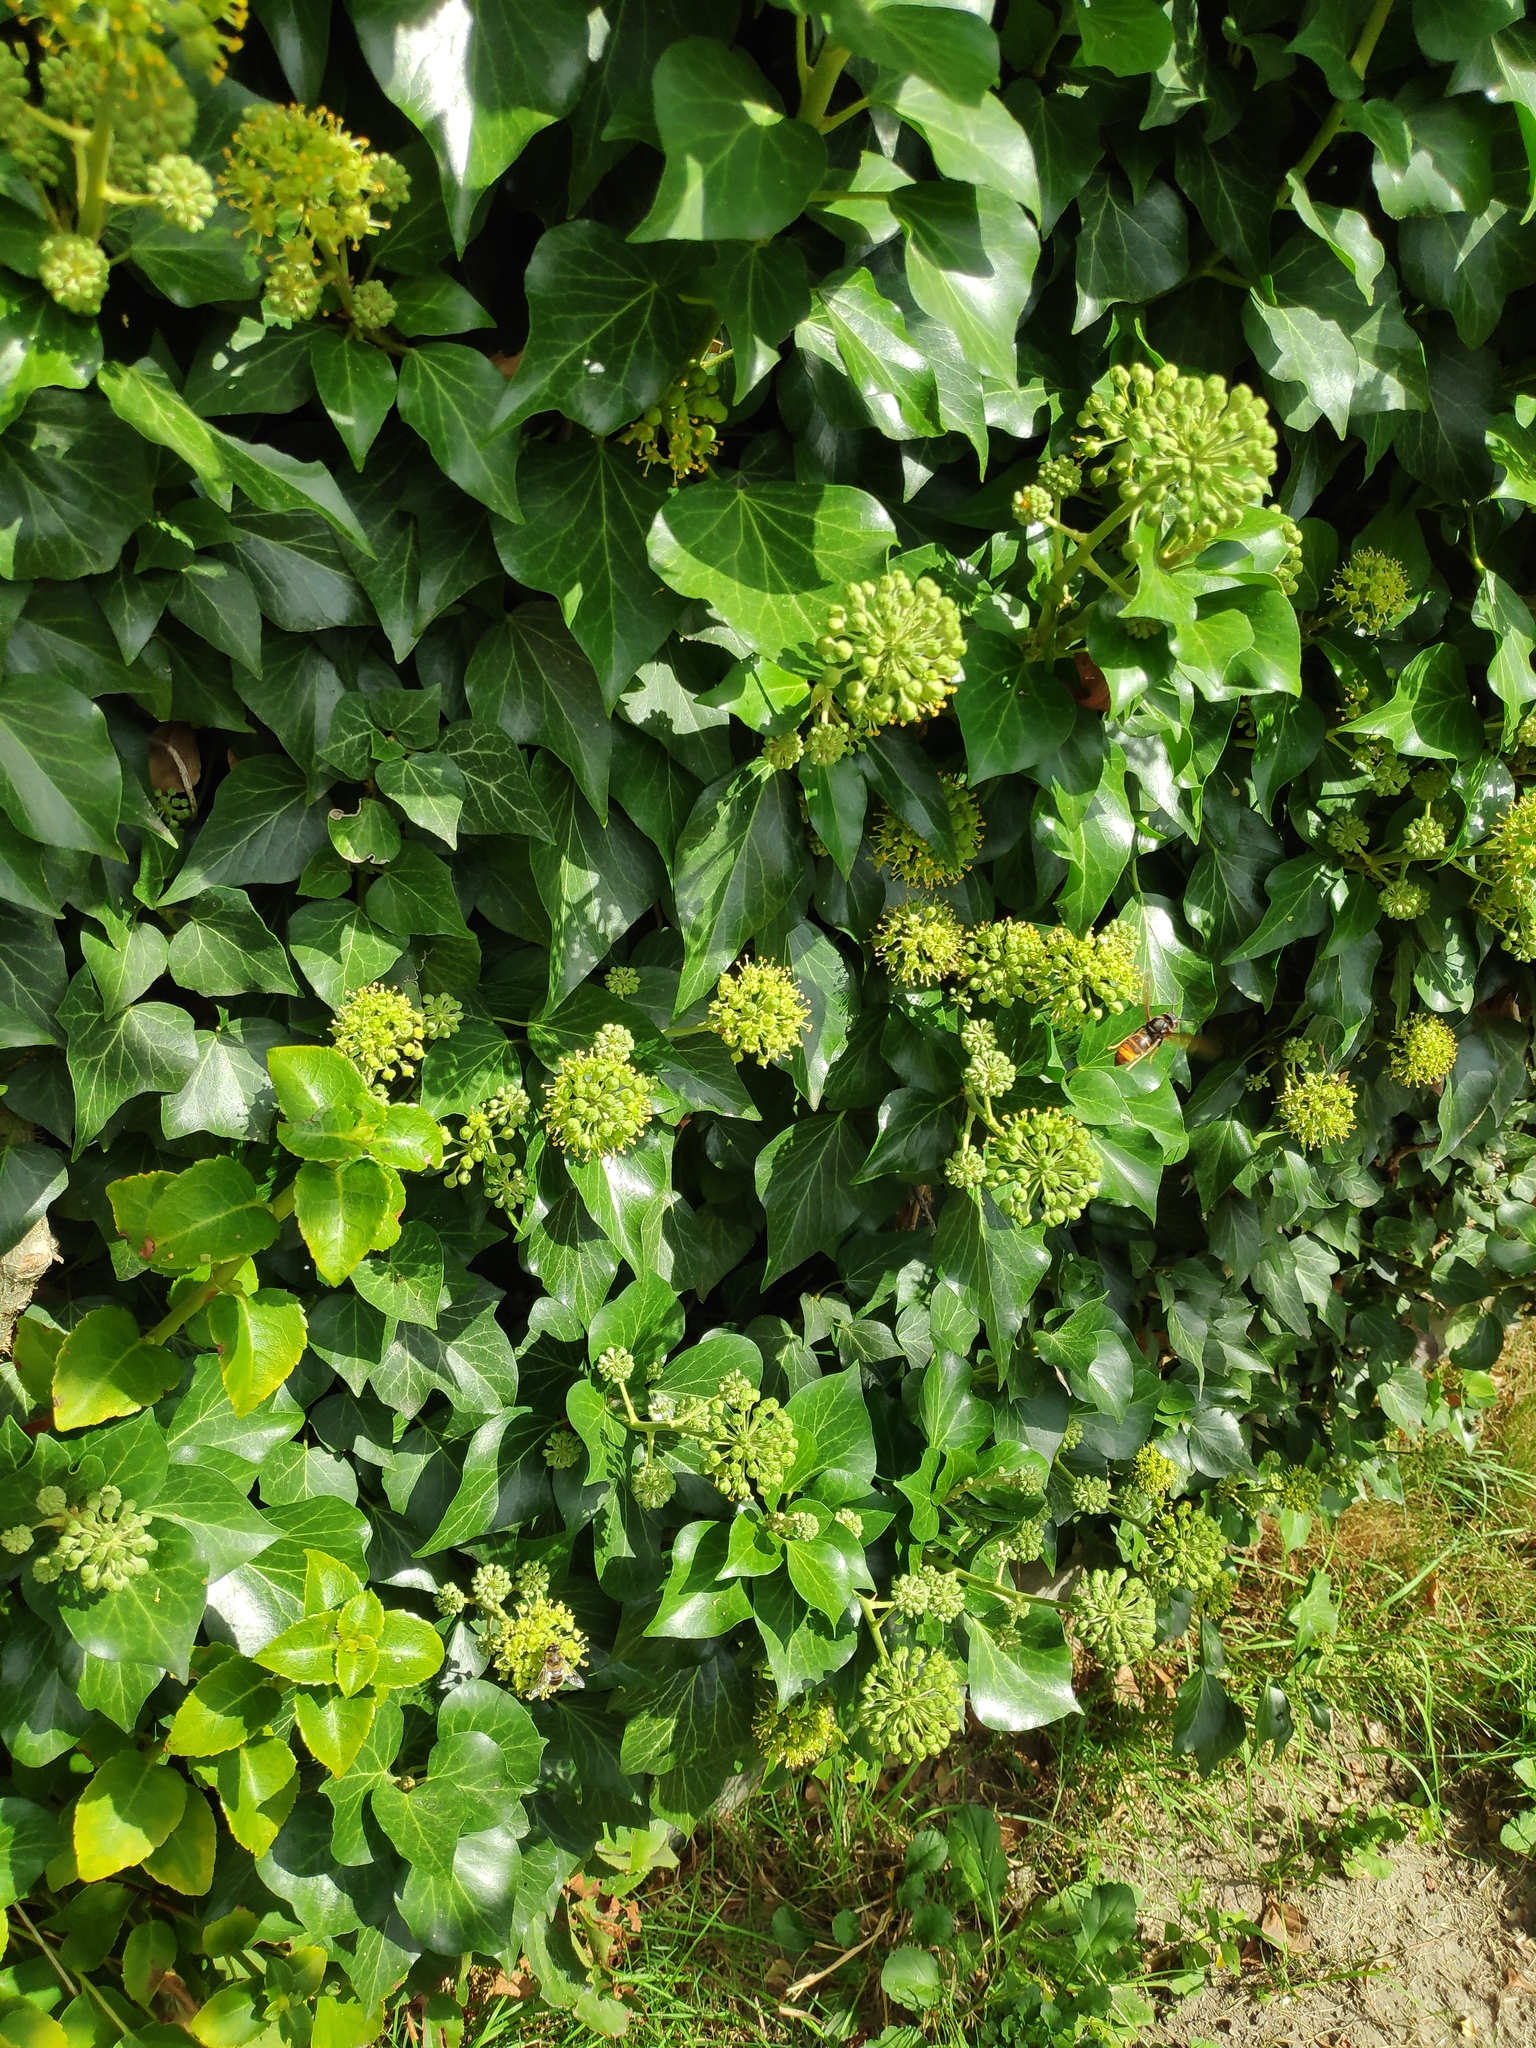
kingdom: Animalia
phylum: Arthropoda
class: Insecta
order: Hymenoptera
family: Vespidae
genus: Vespa
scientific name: Vespa velutina
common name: Asian hornet
